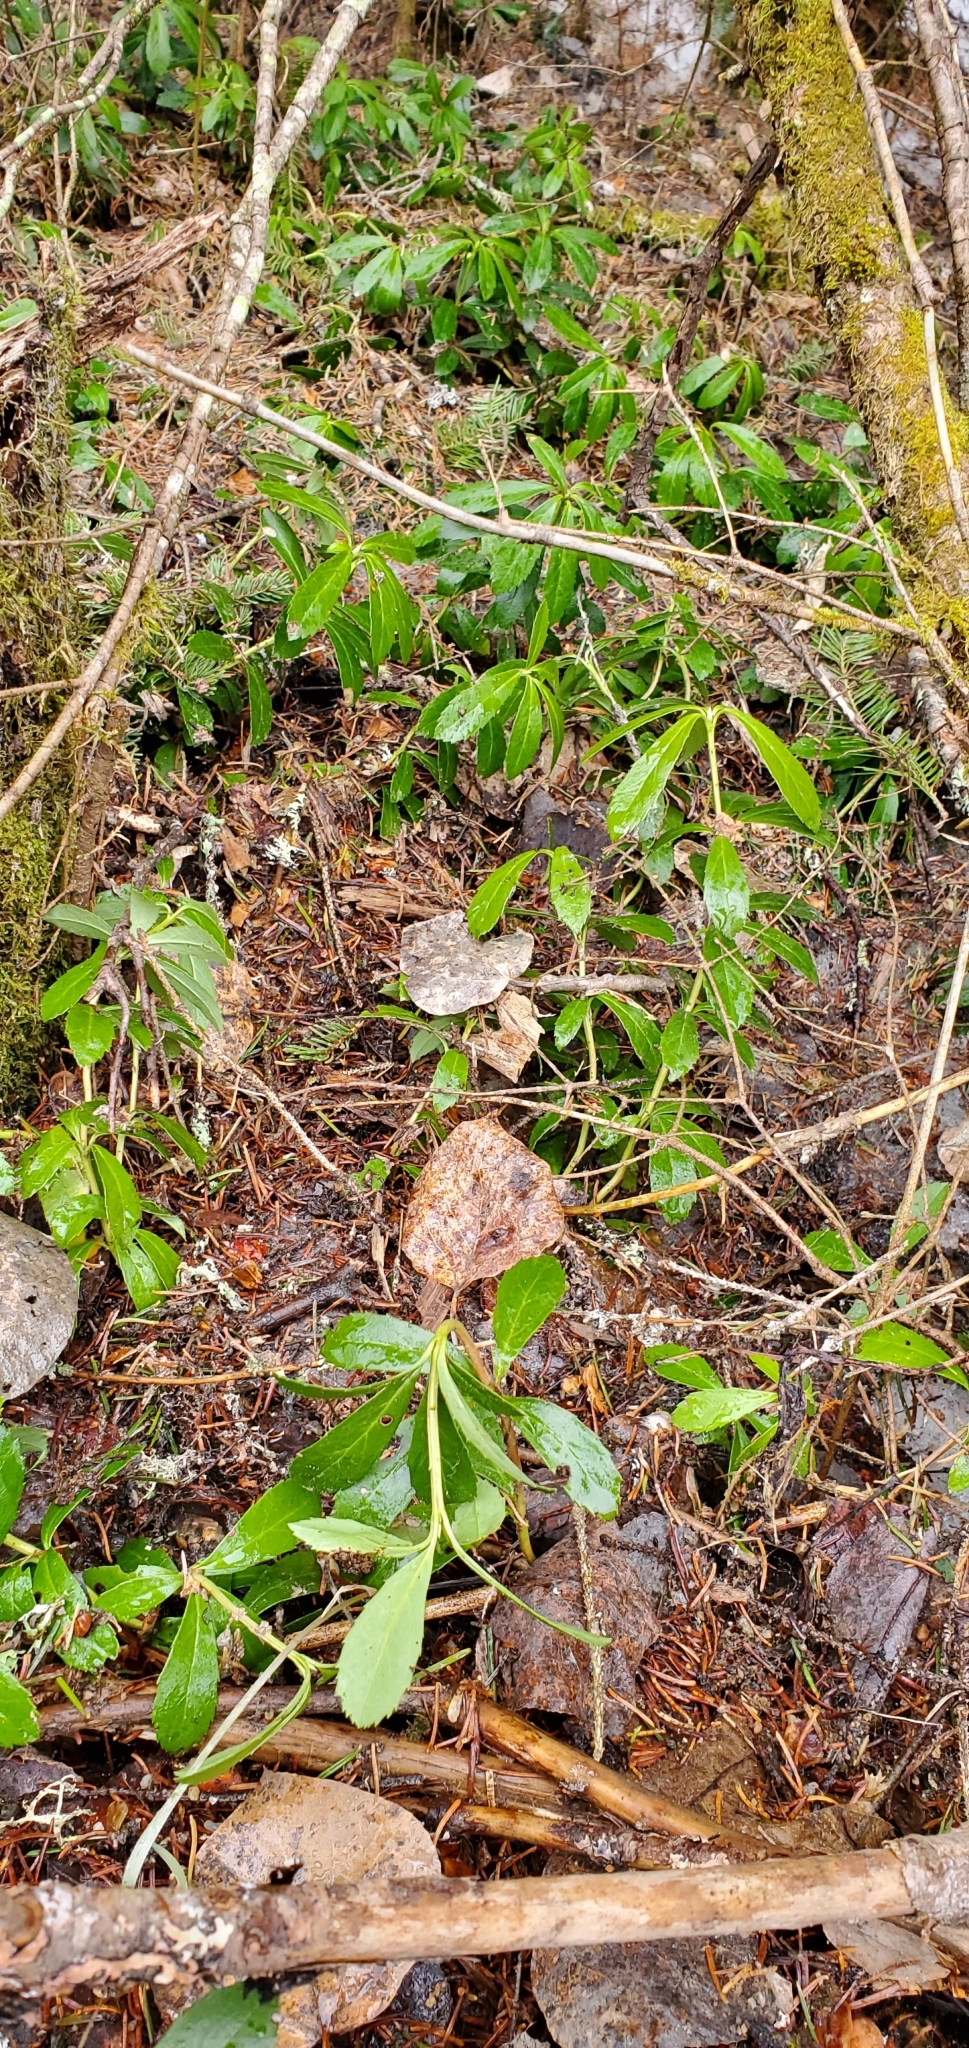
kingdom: Plantae
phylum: Tracheophyta
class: Magnoliopsida
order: Ericales
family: Ericaceae
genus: Chimaphila
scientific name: Chimaphila umbellata
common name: Pipsissewa
